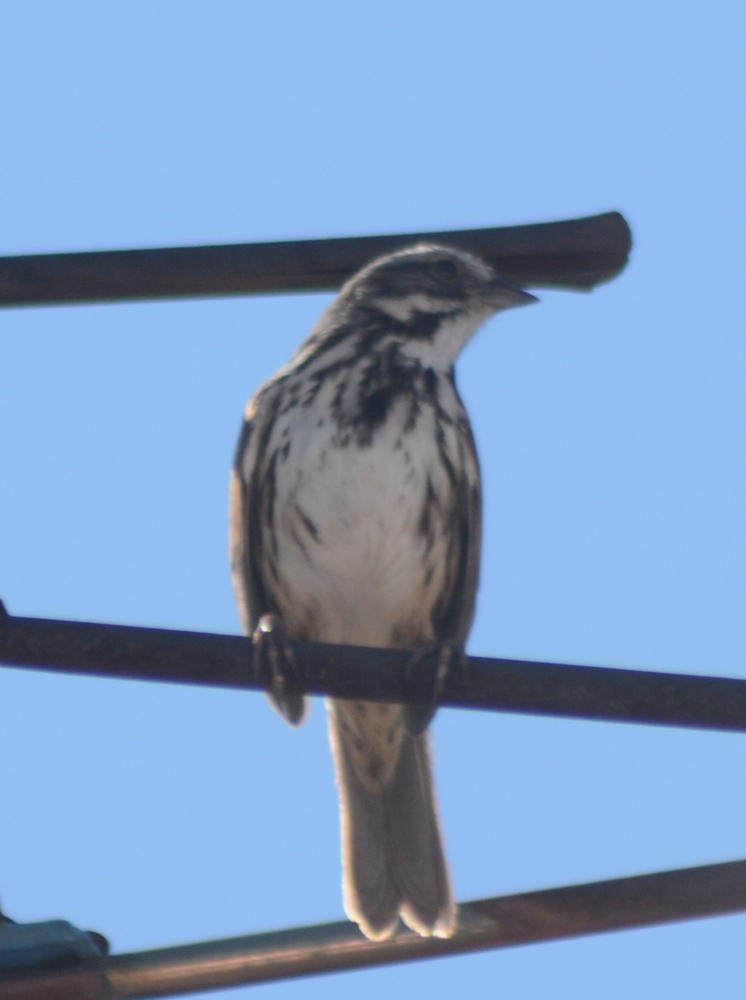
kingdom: Animalia
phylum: Chordata
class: Aves
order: Passeriformes
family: Passerellidae
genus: Melospiza
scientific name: Melospiza melodia
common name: Song sparrow
